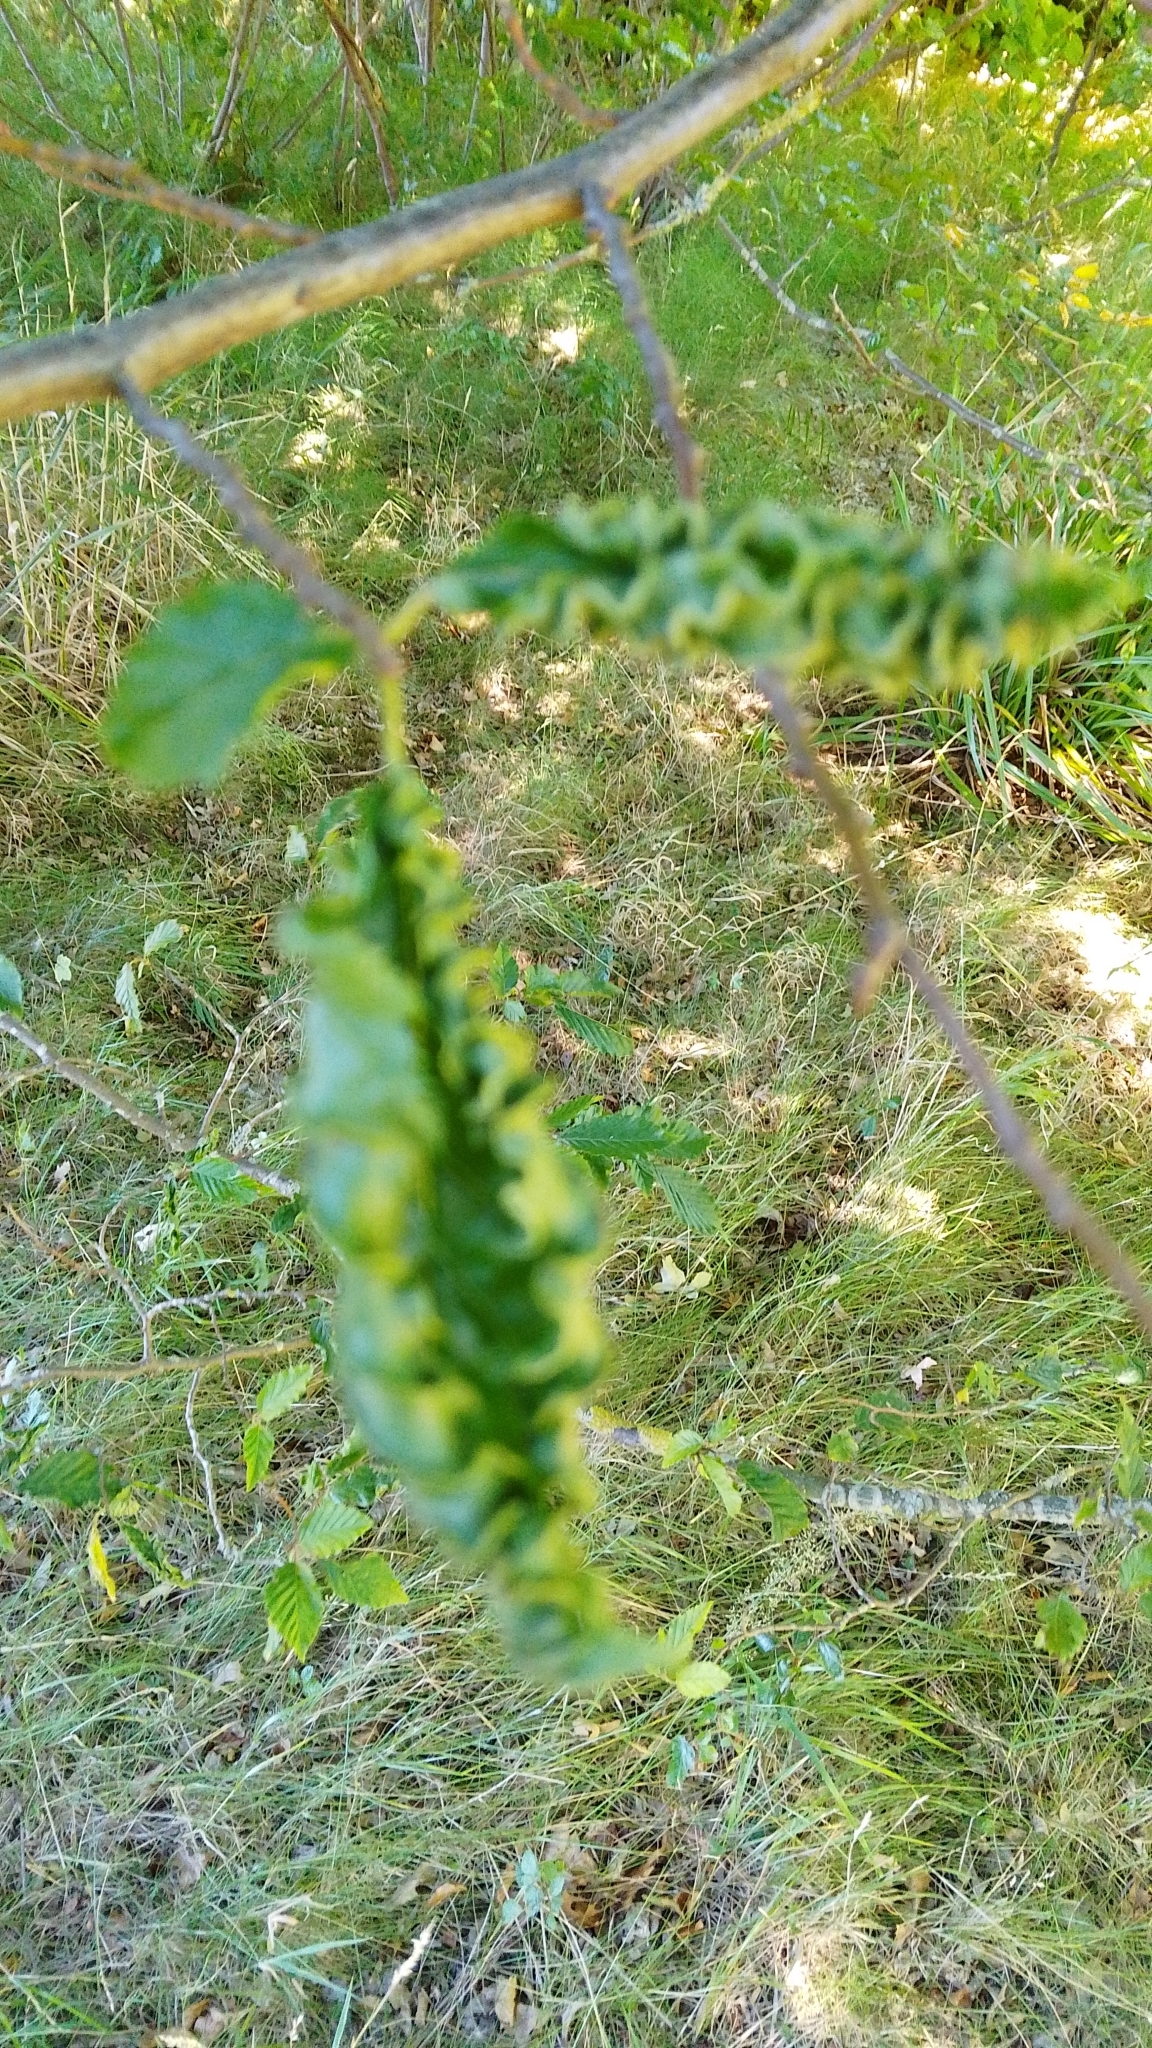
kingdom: Animalia
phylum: Arthropoda
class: Arachnida
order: Trombidiformes
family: Eriophyidae
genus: Aculops
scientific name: Aculops macrotrichus
